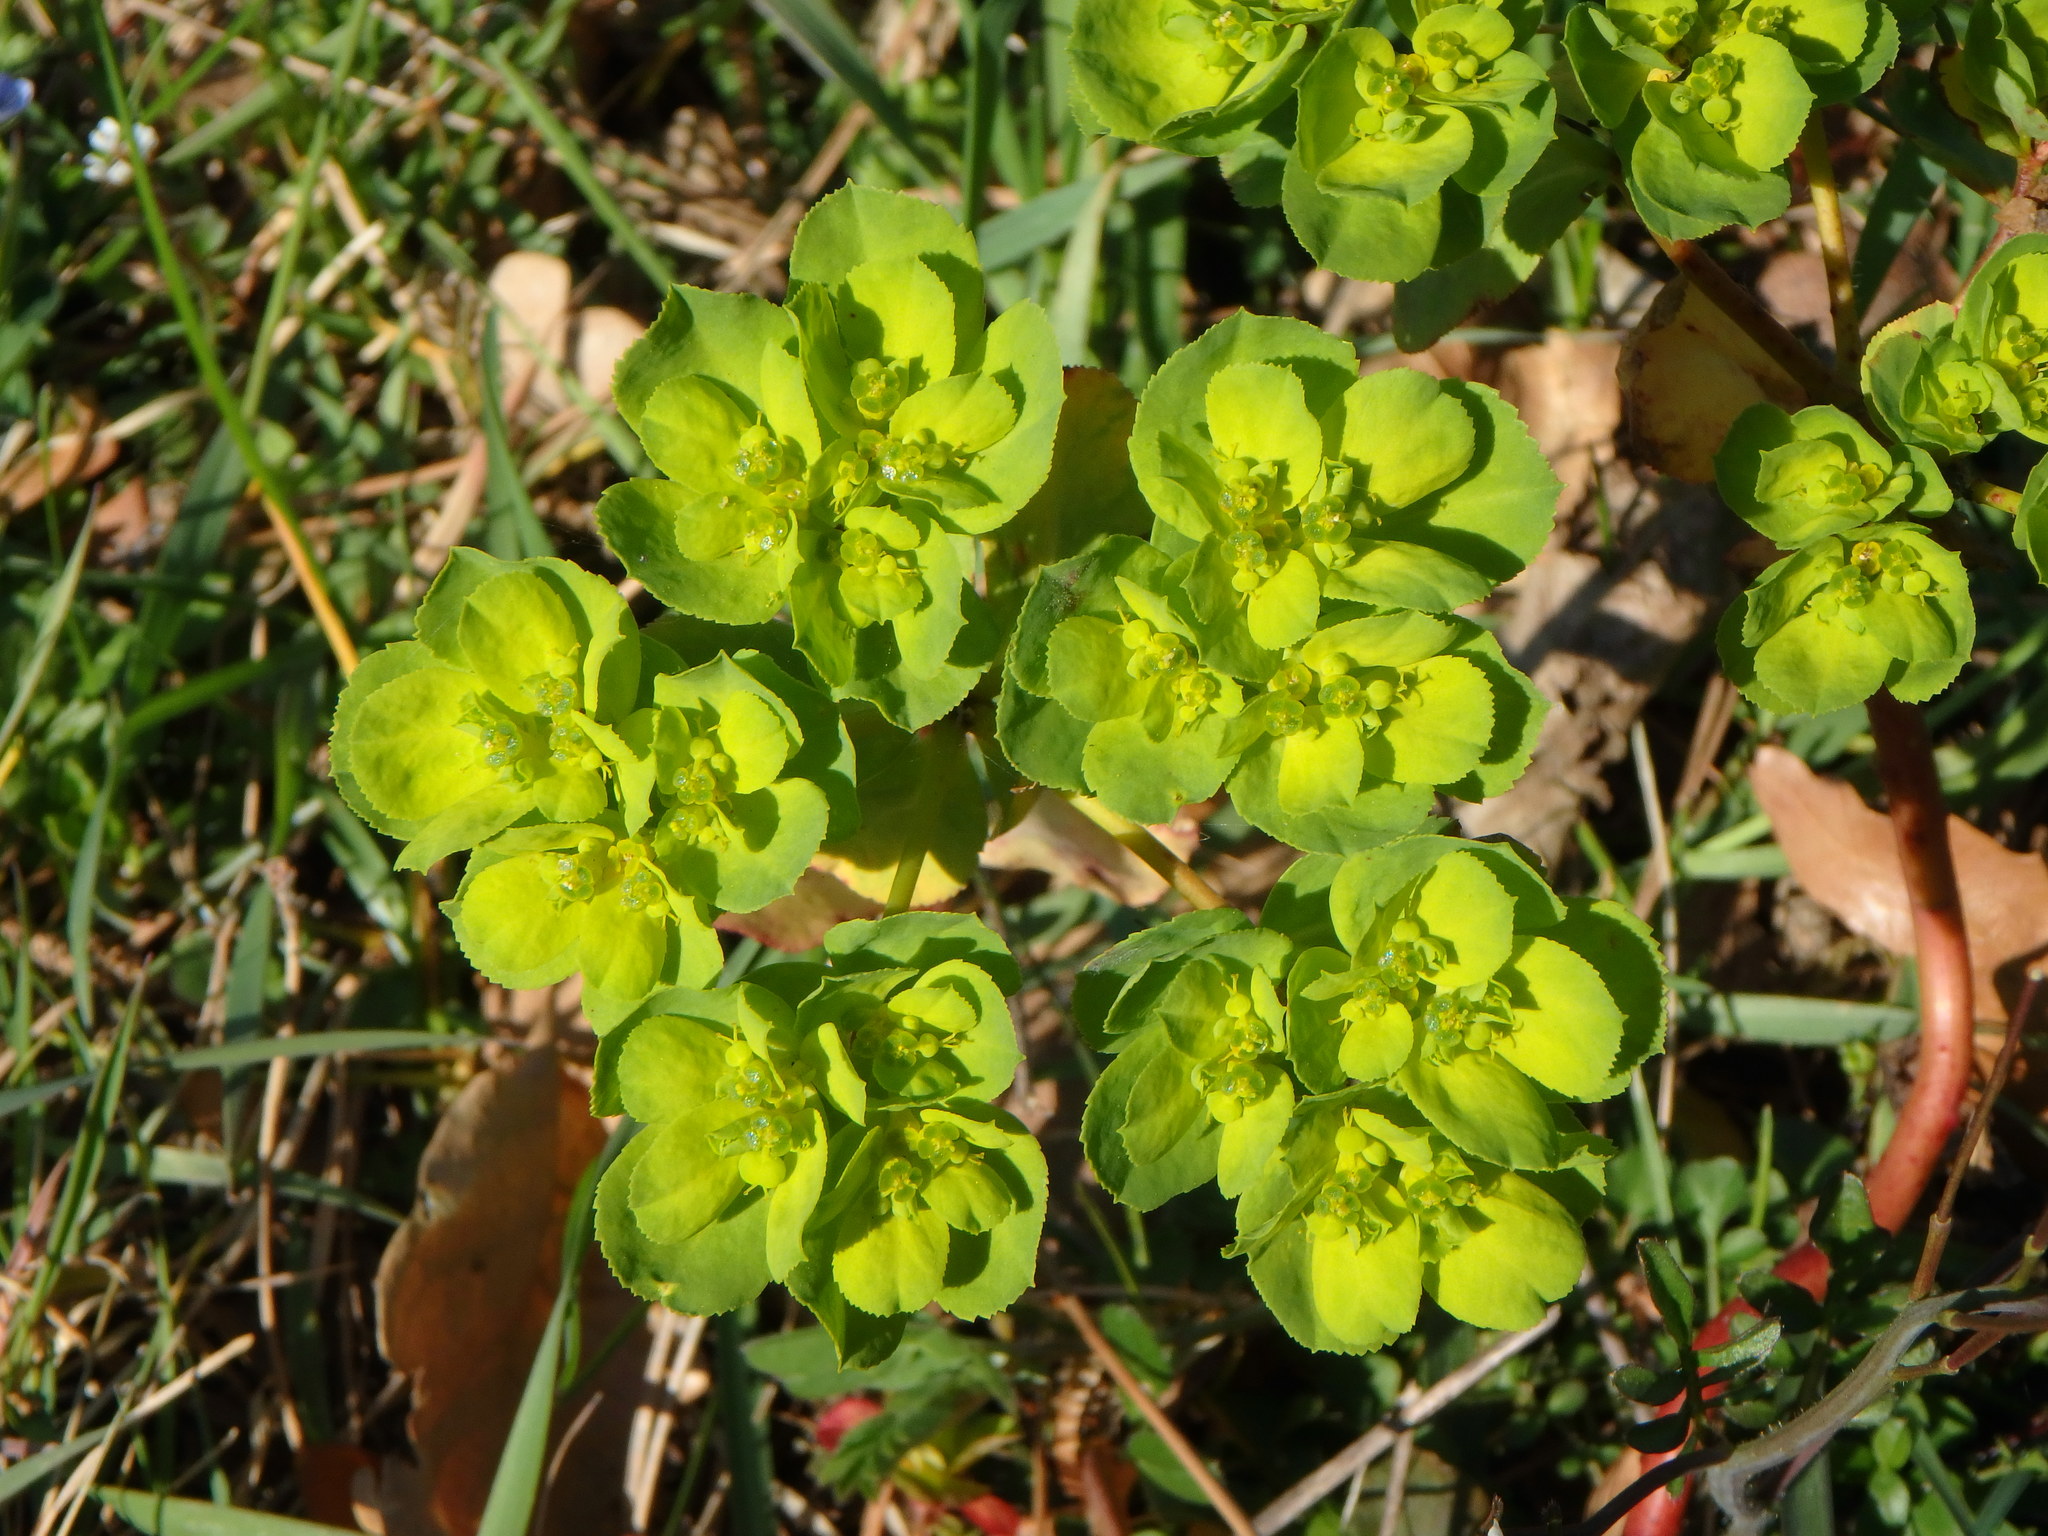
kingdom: Plantae
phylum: Tracheophyta
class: Magnoliopsida
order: Malpighiales
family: Euphorbiaceae
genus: Euphorbia
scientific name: Euphorbia helioscopia
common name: Sun spurge
